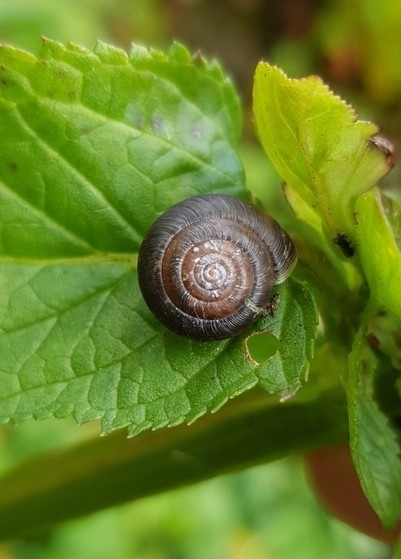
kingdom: Animalia
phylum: Mollusca
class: Gastropoda
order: Stylommatophora
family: Hygromiidae
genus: Trochulus
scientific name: Trochulus striolatus
